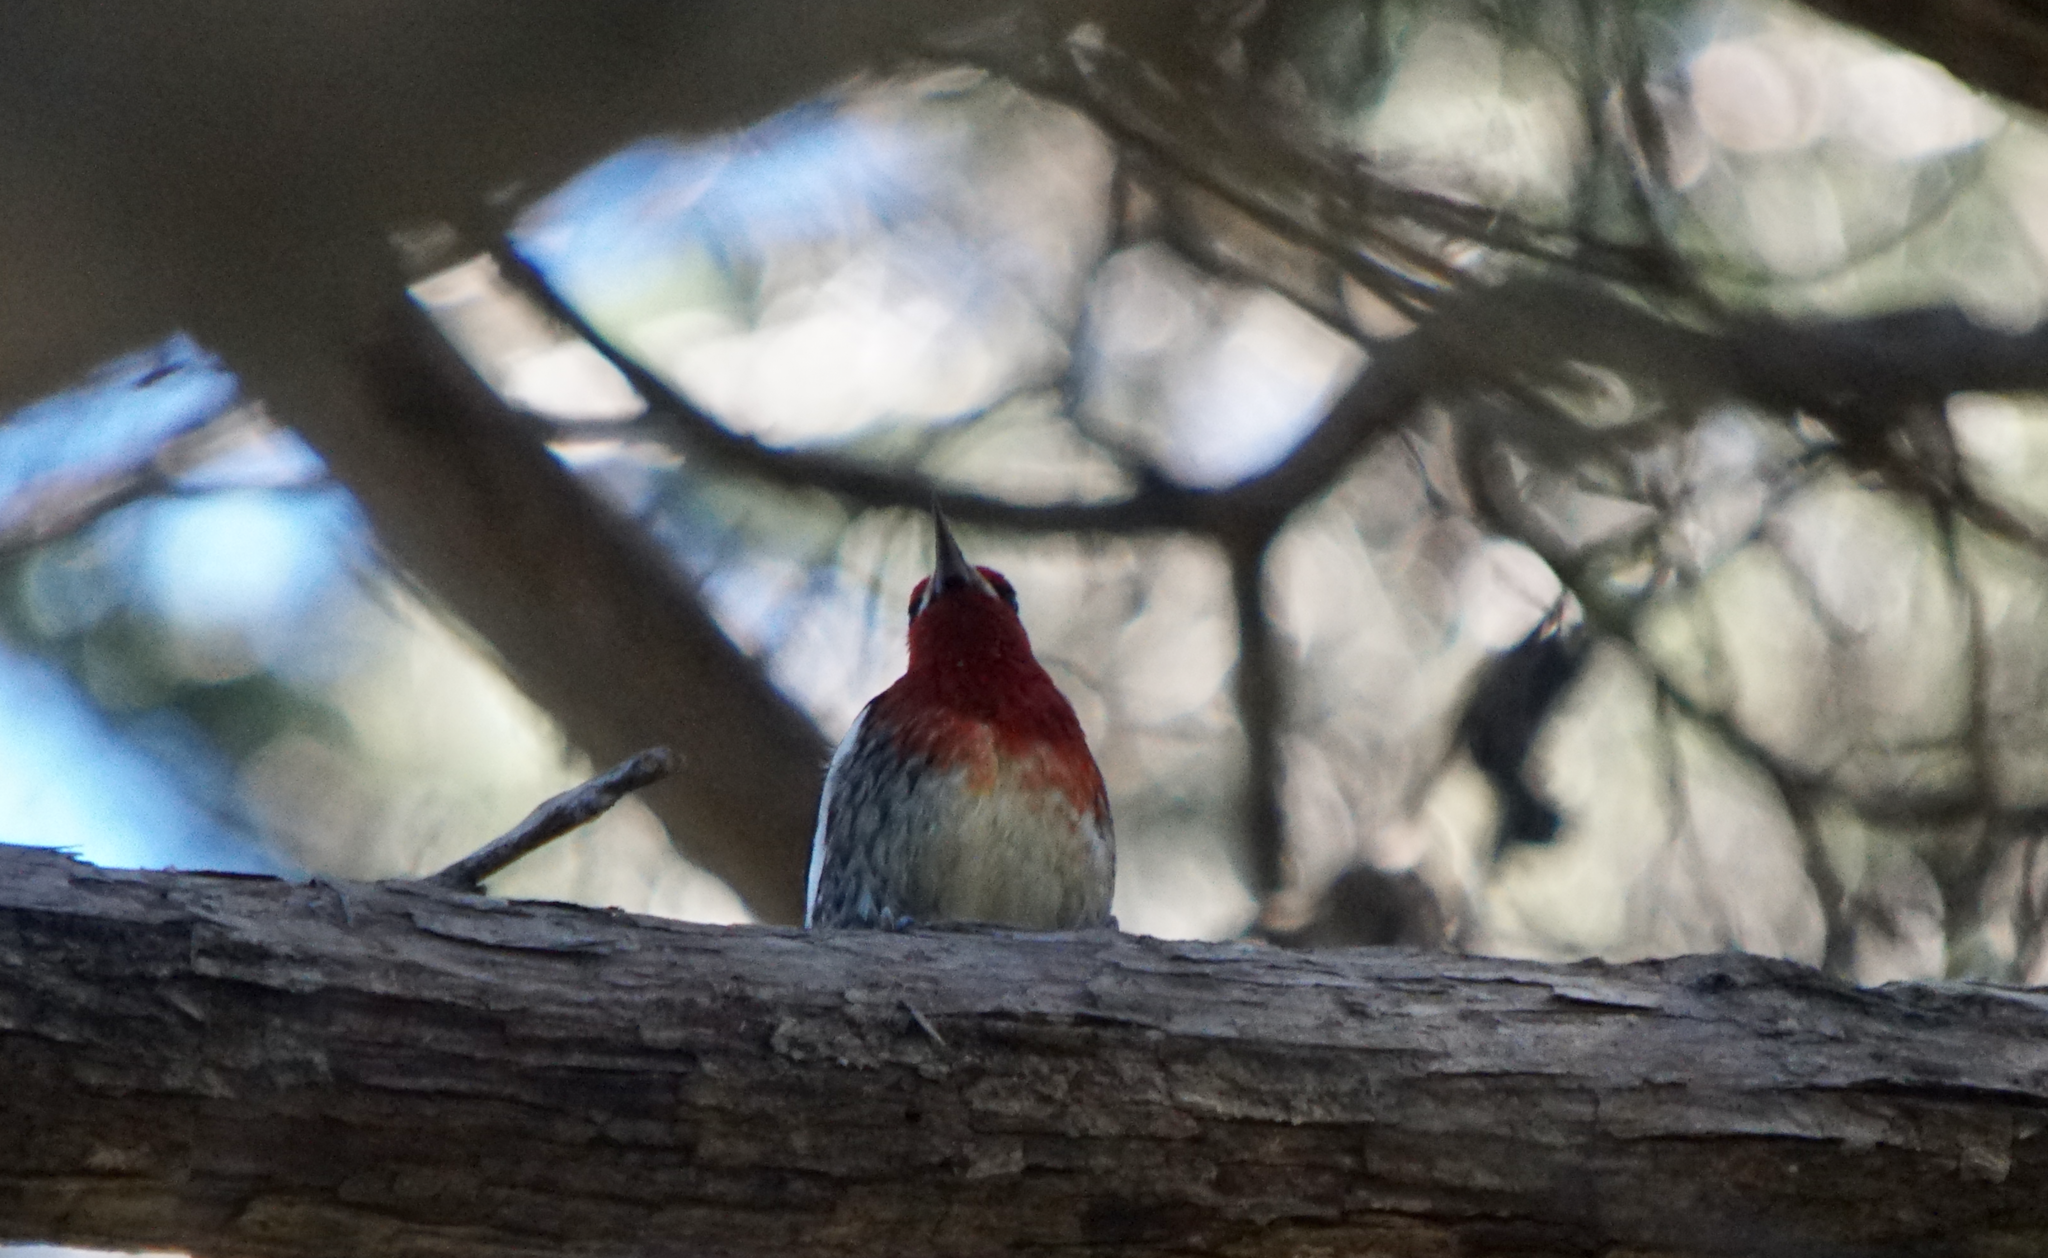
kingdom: Animalia
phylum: Chordata
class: Aves
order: Piciformes
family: Picidae
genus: Sphyrapicus
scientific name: Sphyrapicus ruber
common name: Red-breasted sapsucker
